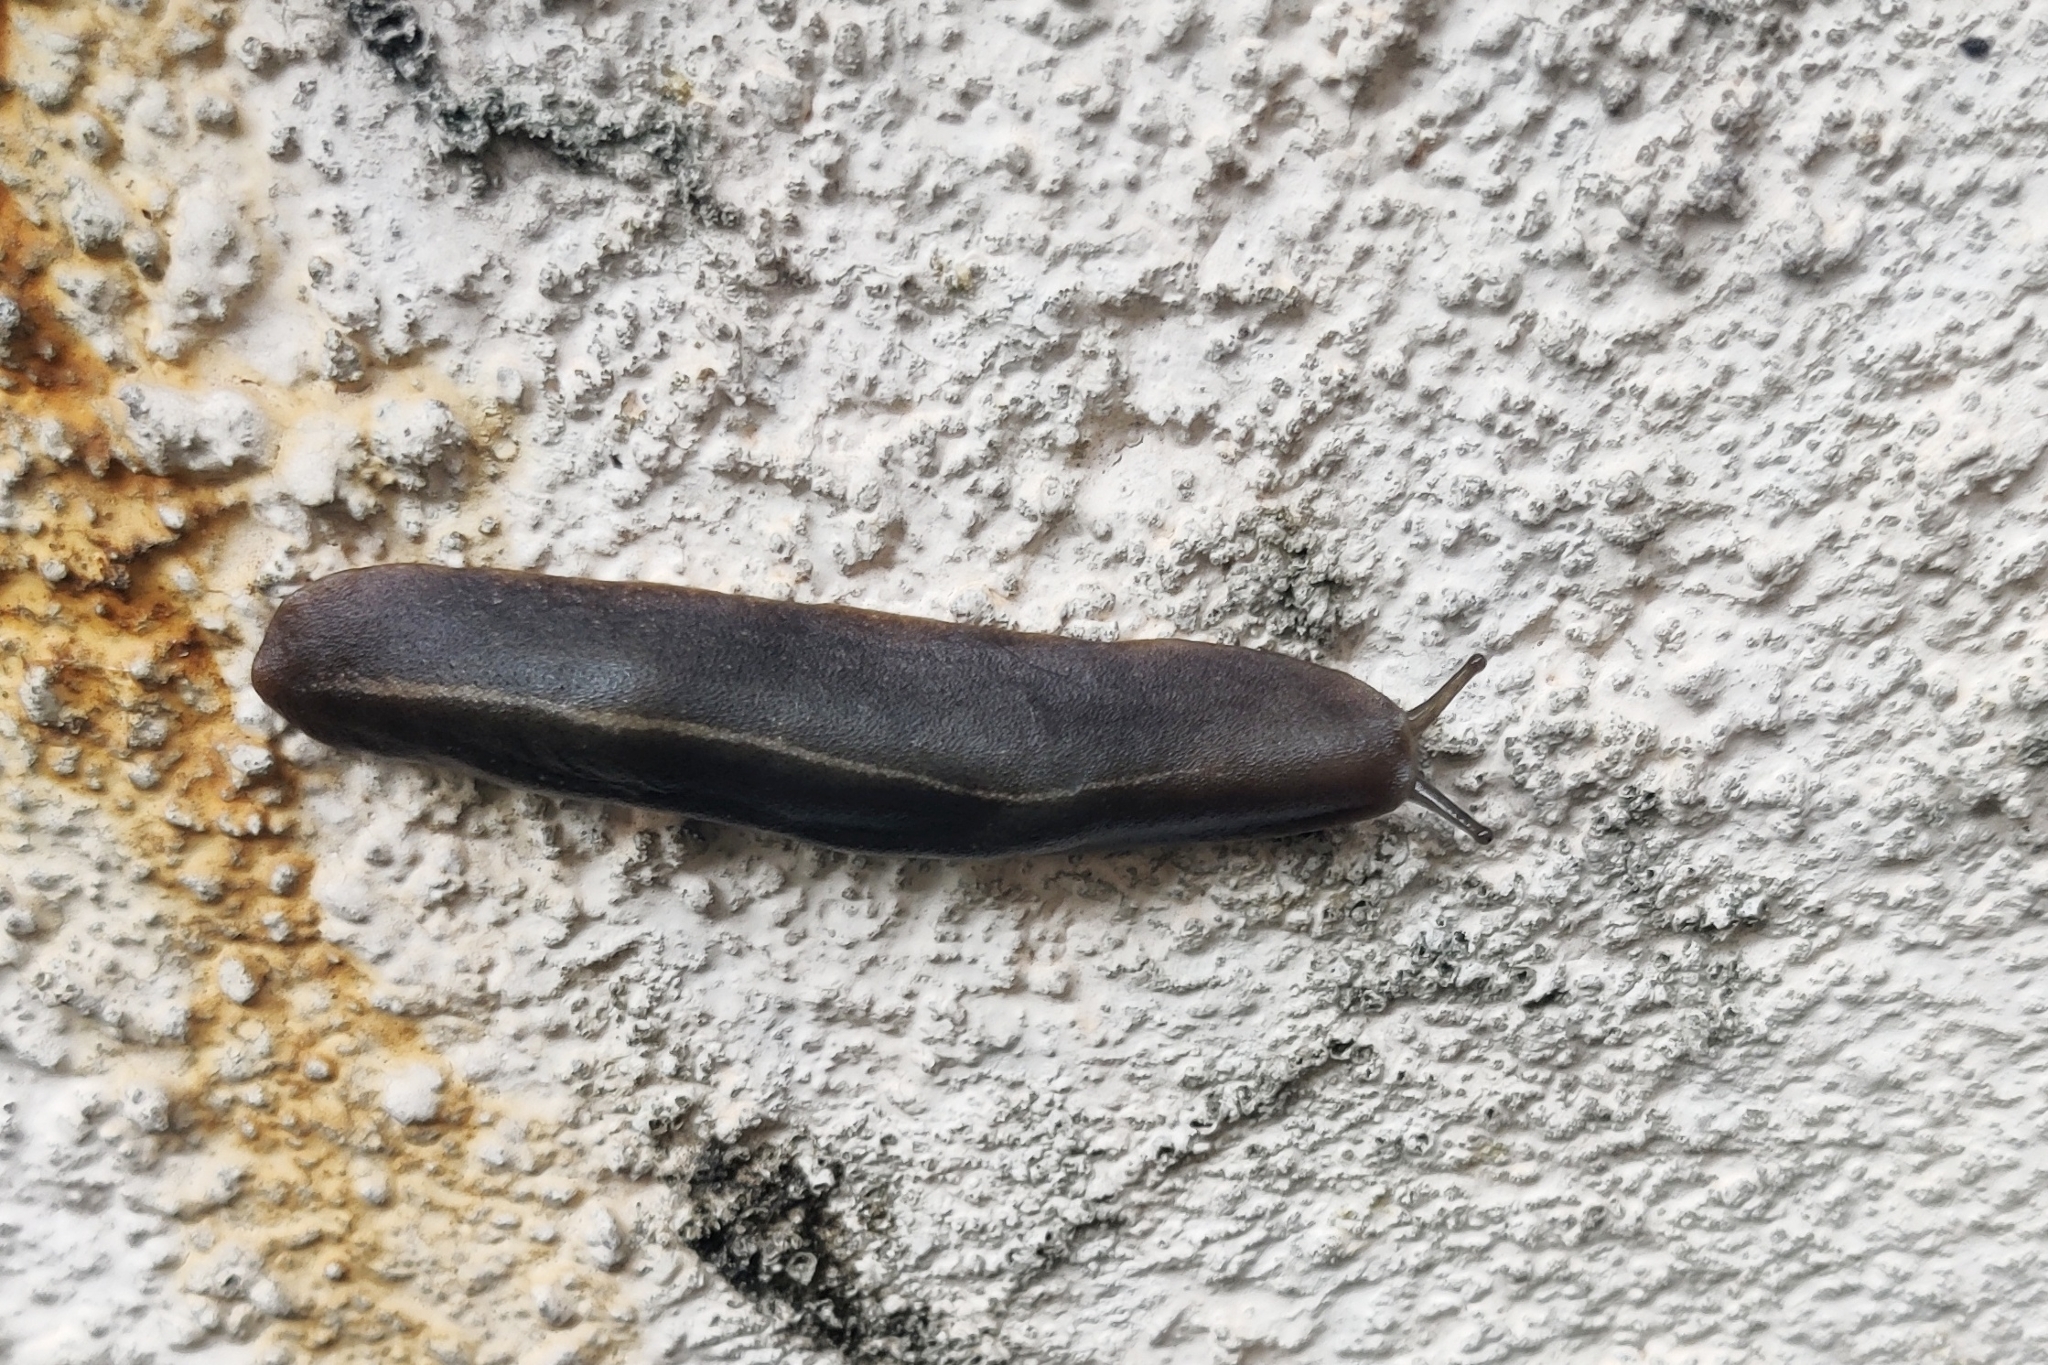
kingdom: Animalia
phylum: Mollusca
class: Gastropoda
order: Systellommatophora
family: Veronicellidae
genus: Laevicaulis
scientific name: Laevicaulis alte
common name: Tropical leatherleaf
